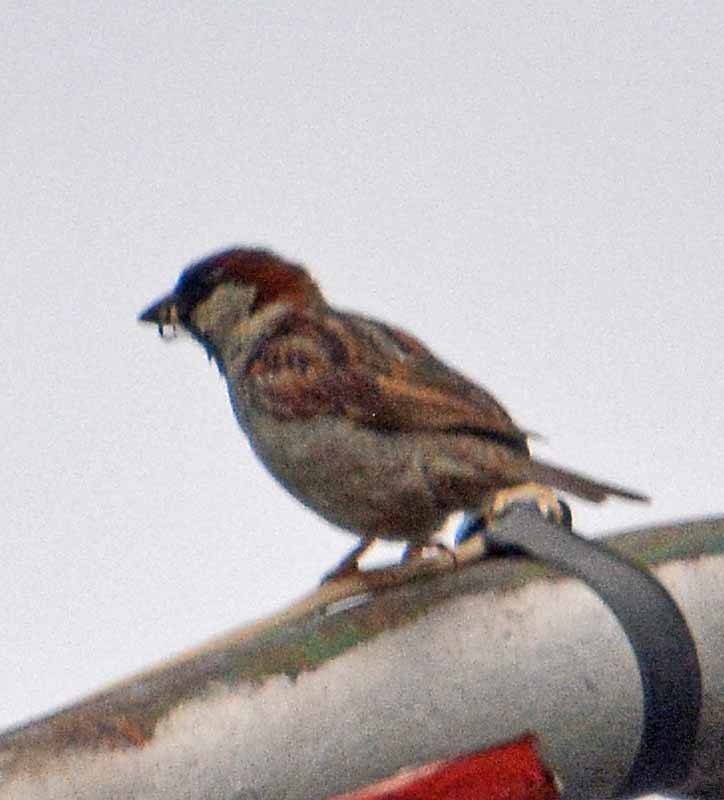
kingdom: Animalia
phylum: Chordata
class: Aves
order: Passeriformes
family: Passeridae
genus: Passer
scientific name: Passer domesticus
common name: House sparrow
